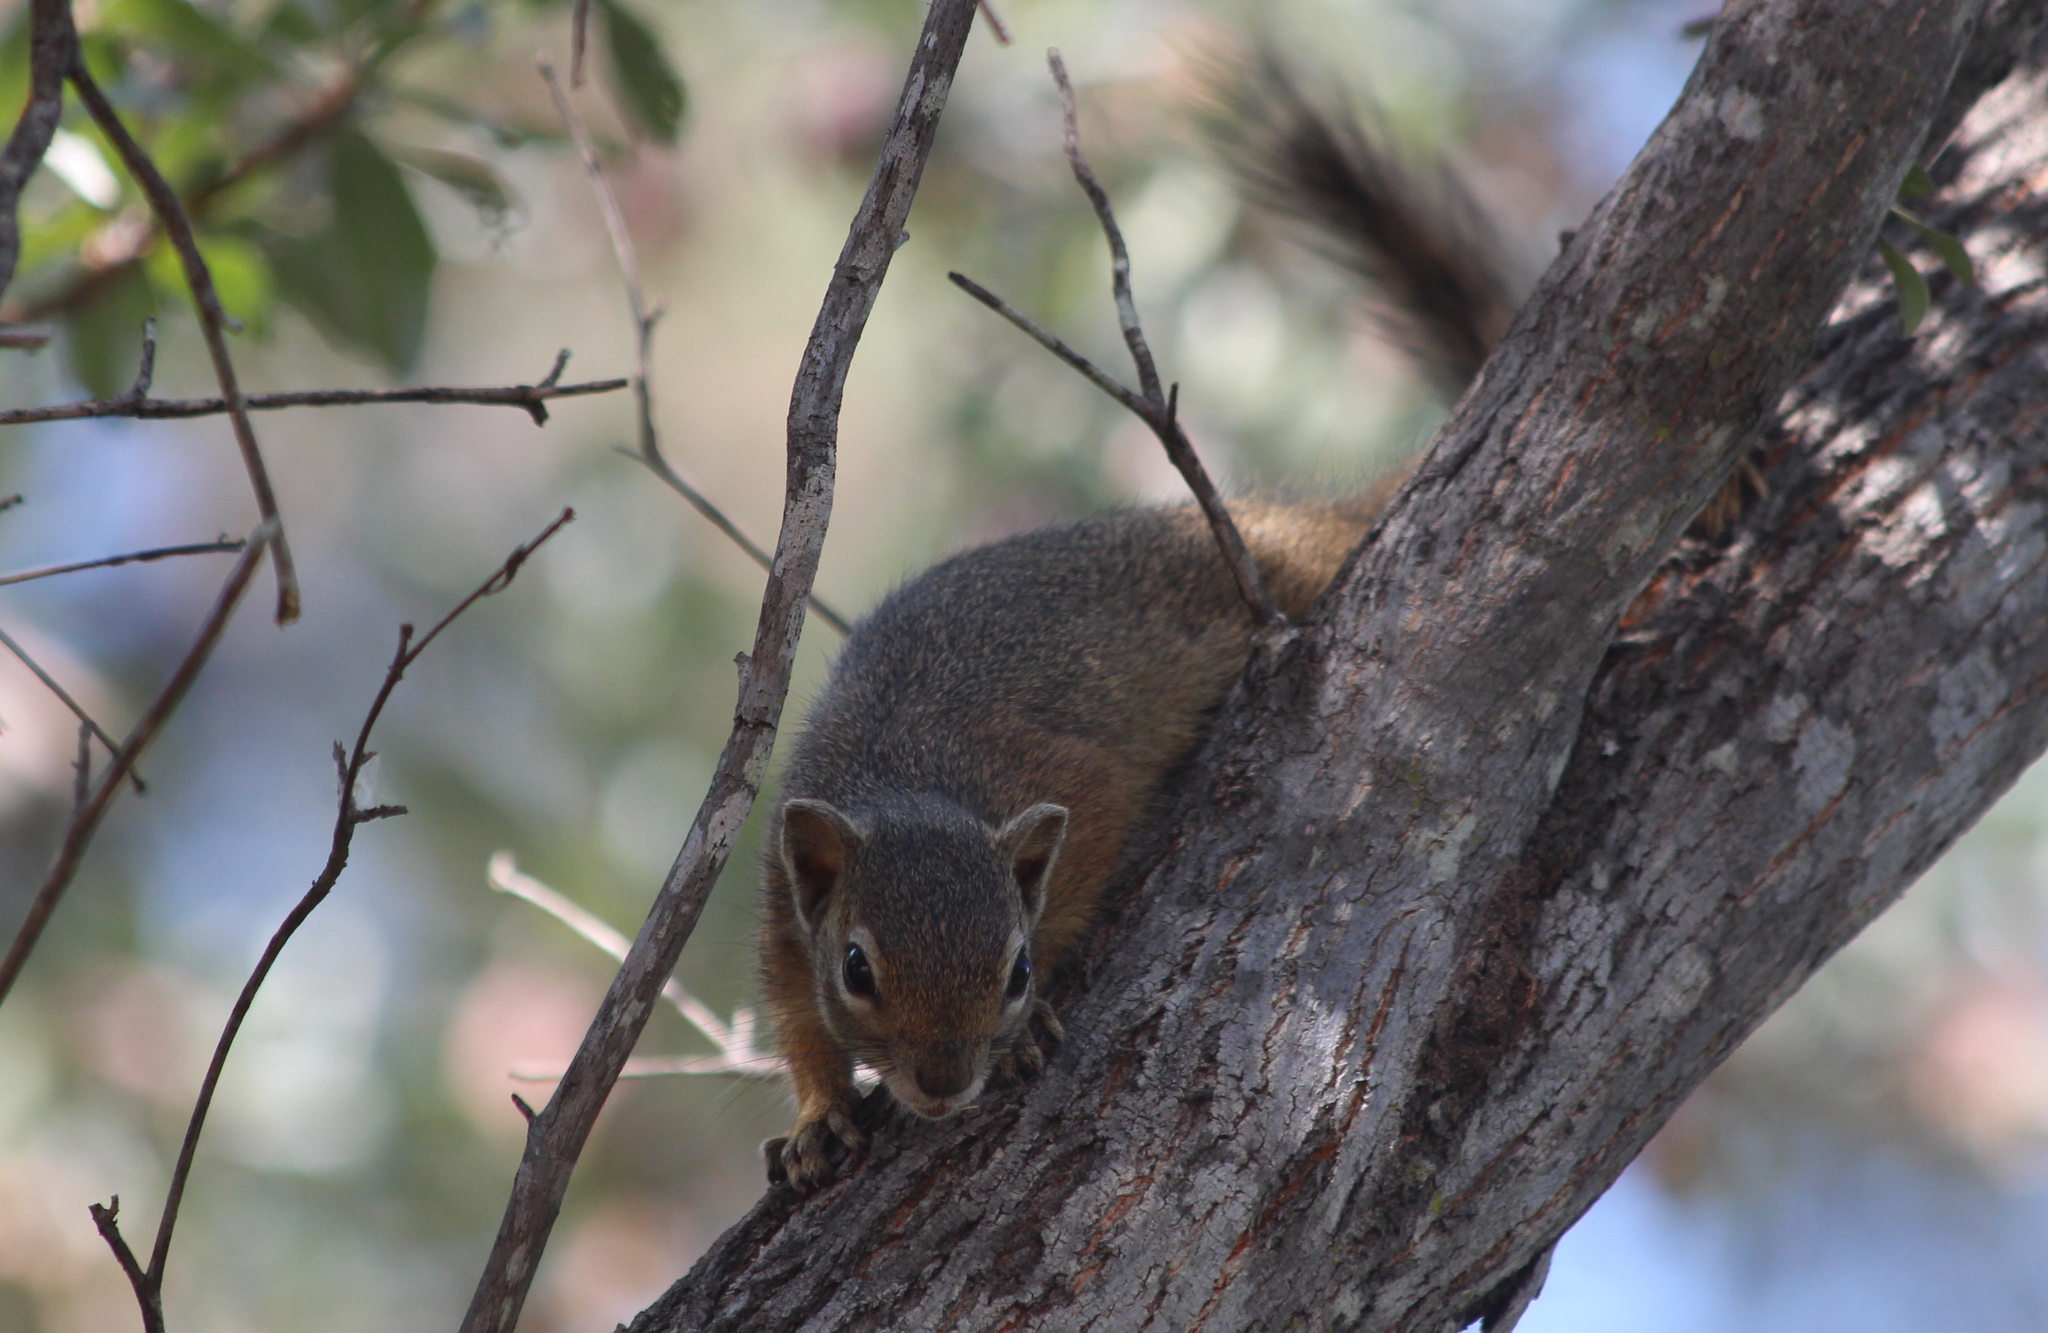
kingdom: Animalia
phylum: Chordata
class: Mammalia
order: Rodentia
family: Sciuridae
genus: Paraxerus
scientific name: Paraxerus cepapi
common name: Smith's bush squirrel
